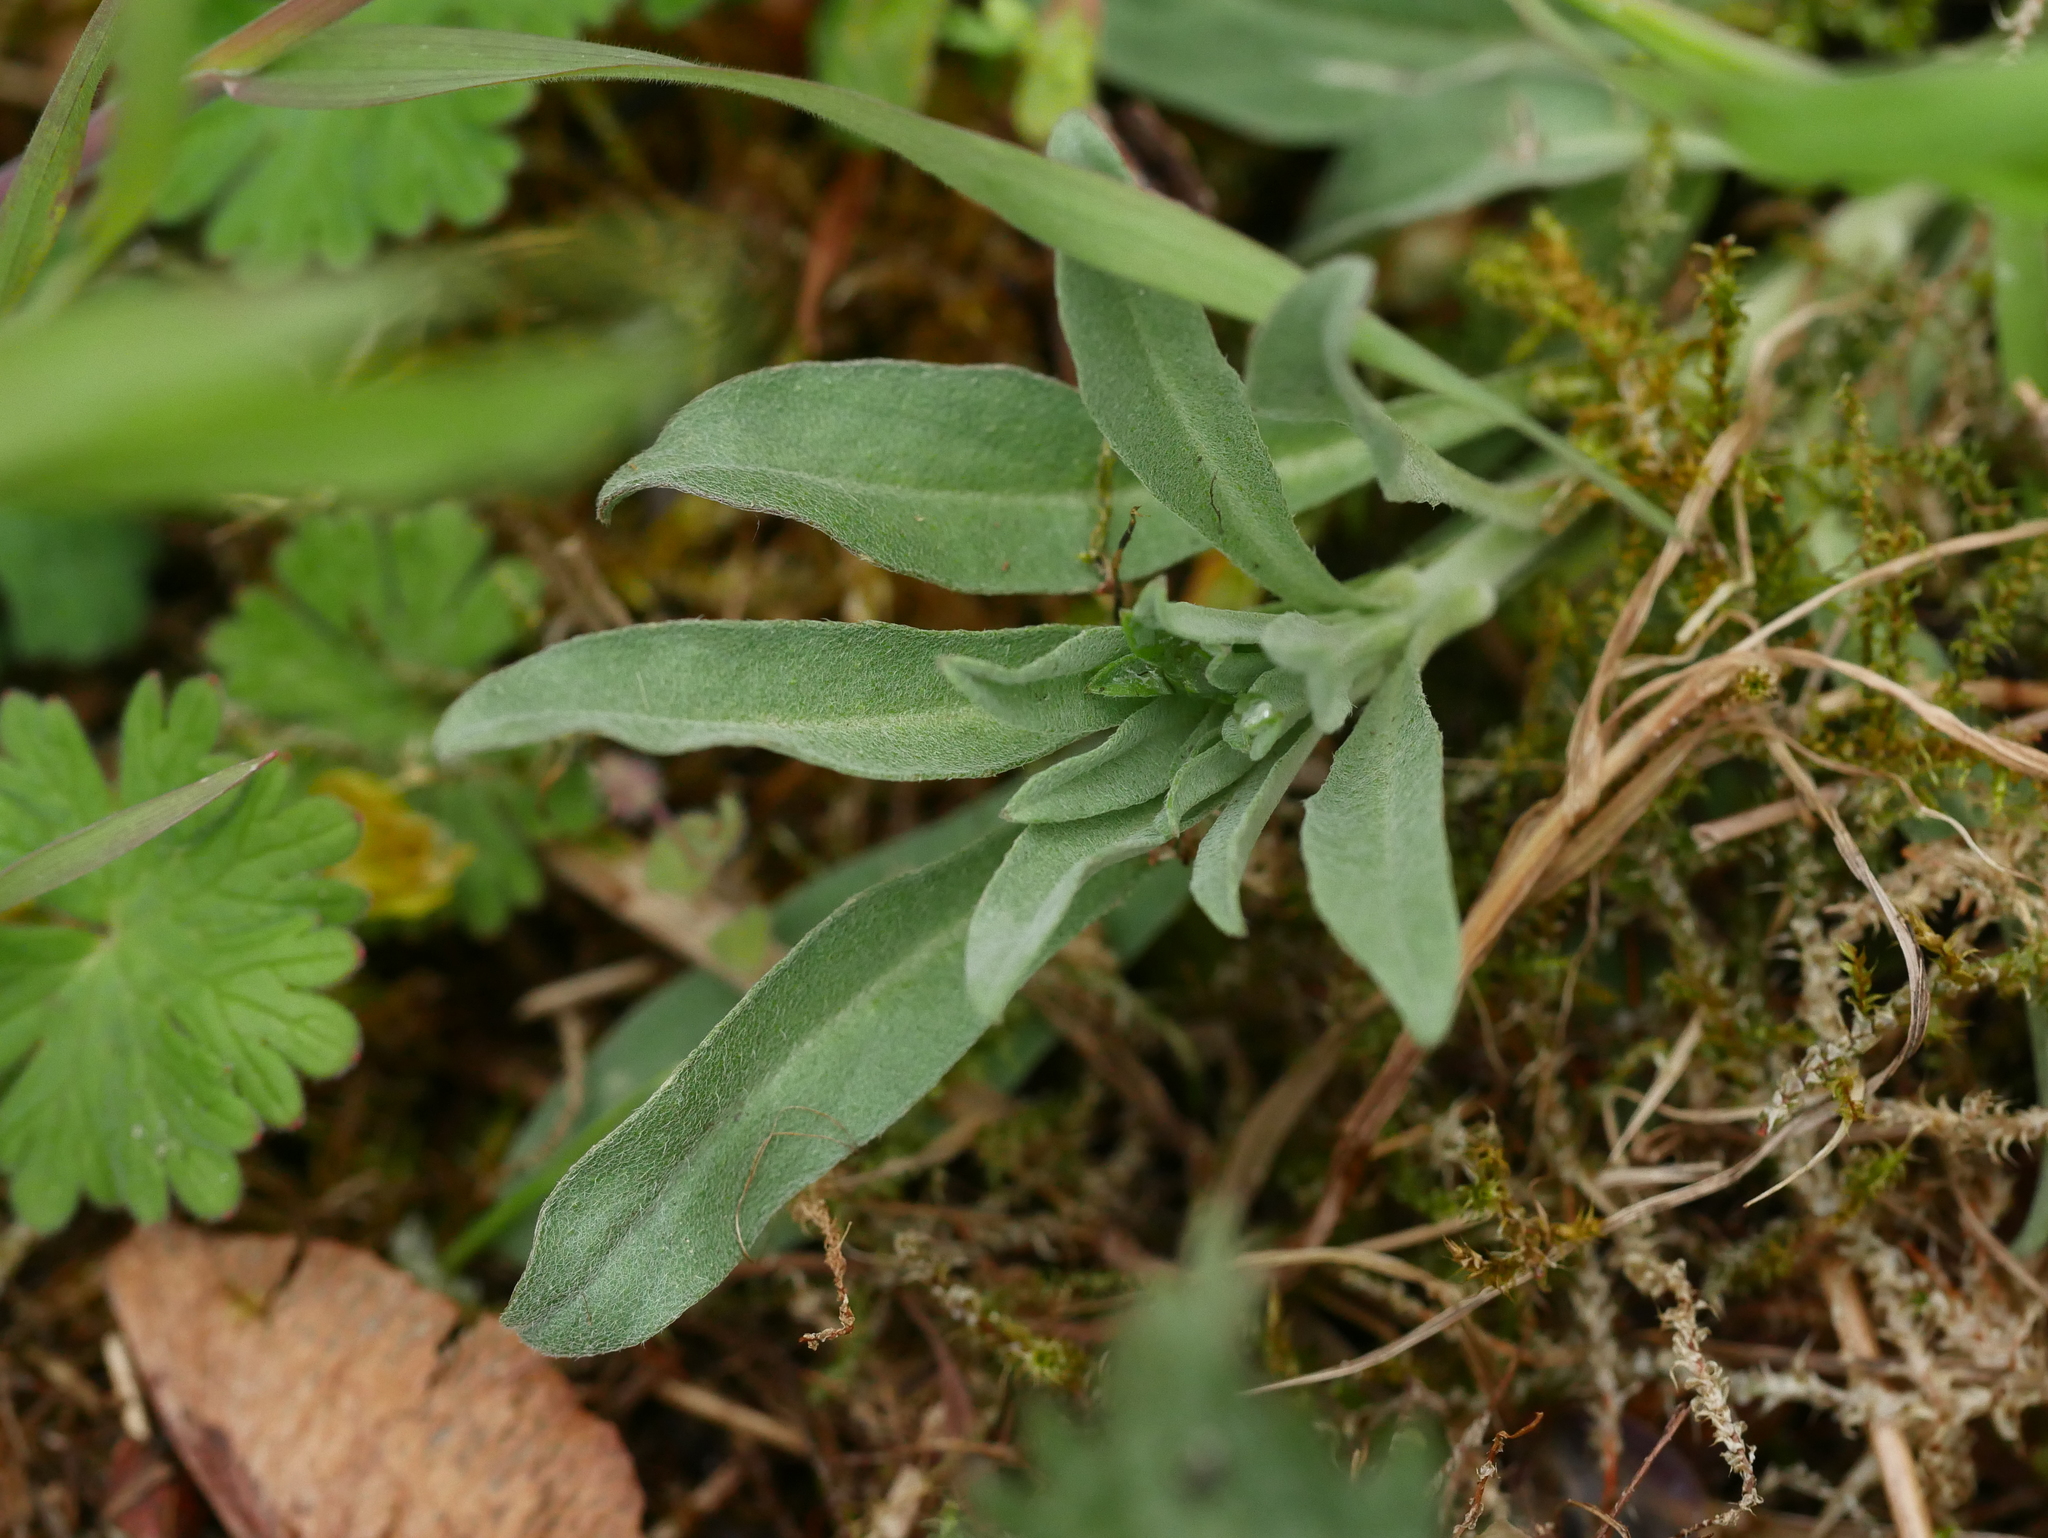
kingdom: Plantae
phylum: Tracheophyta
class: Magnoliopsida
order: Brassicales
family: Brassicaceae
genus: Berteroa
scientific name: Berteroa incana
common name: Hoary alison
